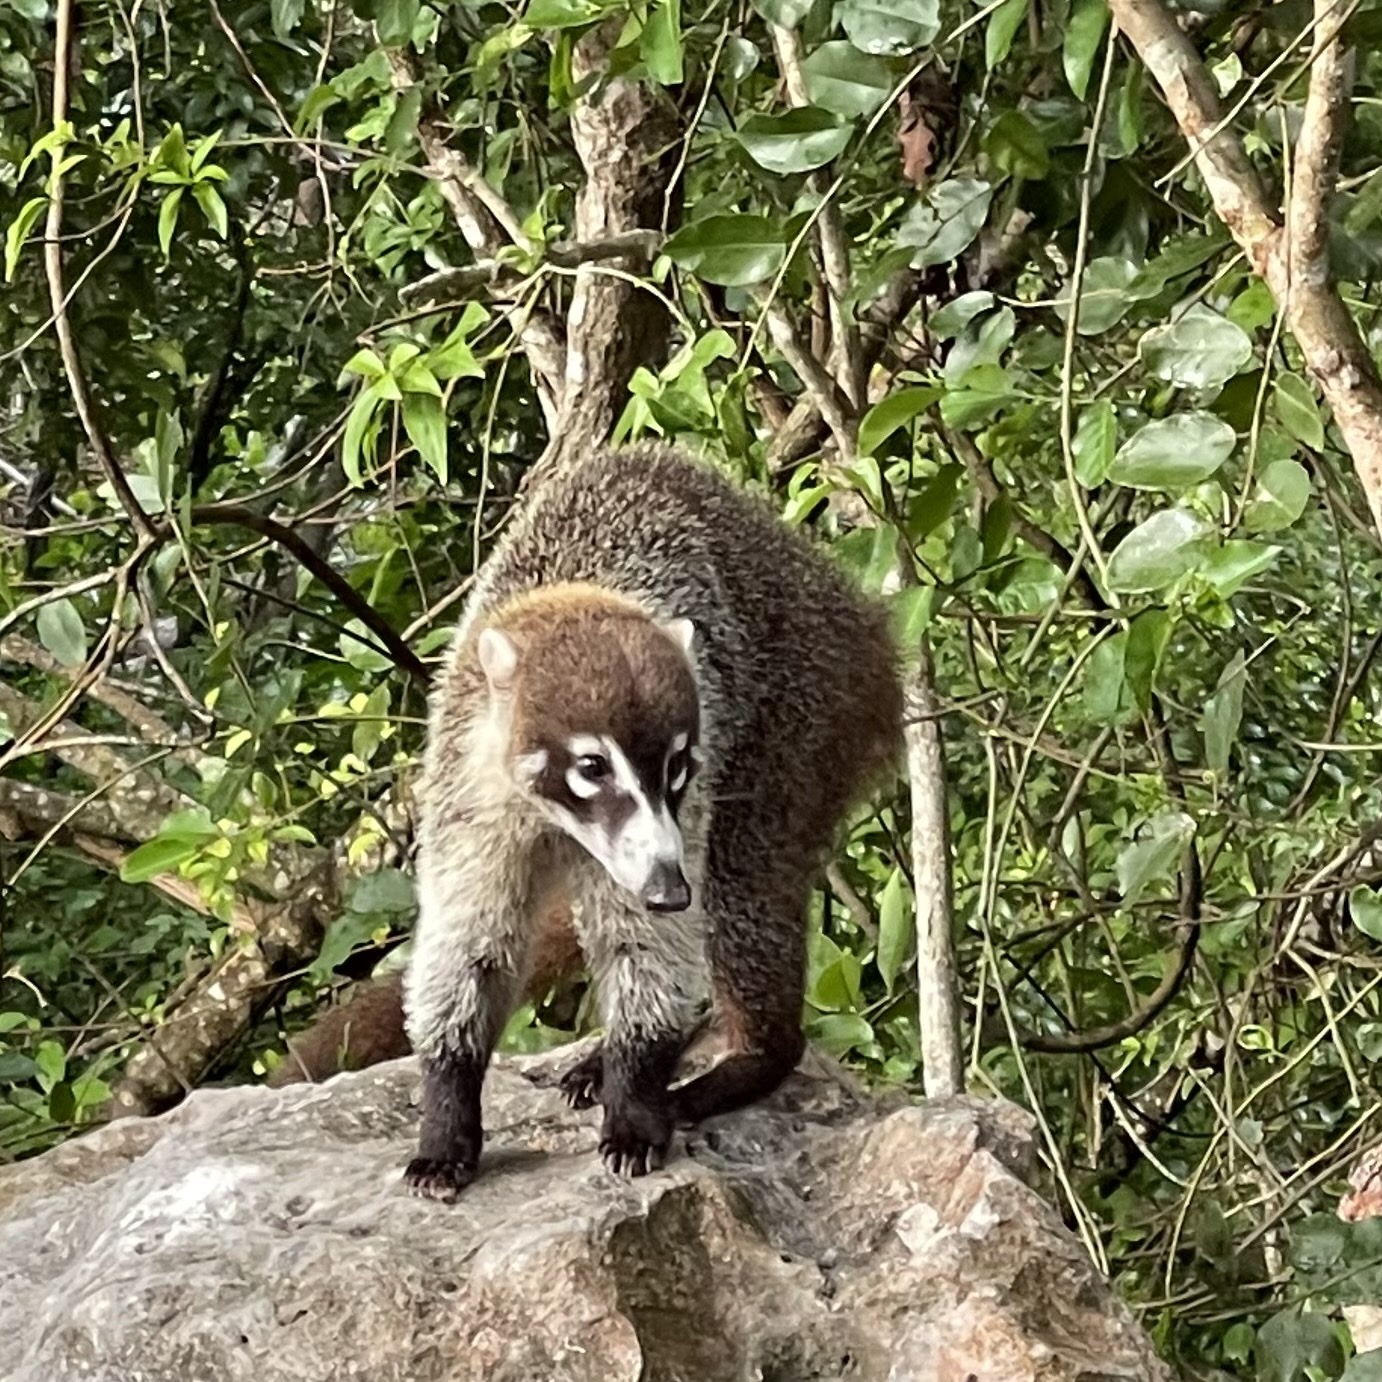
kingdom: Animalia
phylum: Chordata
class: Mammalia
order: Carnivora
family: Procyonidae
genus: Nasua
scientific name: Nasua narica
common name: White-nosed coati
